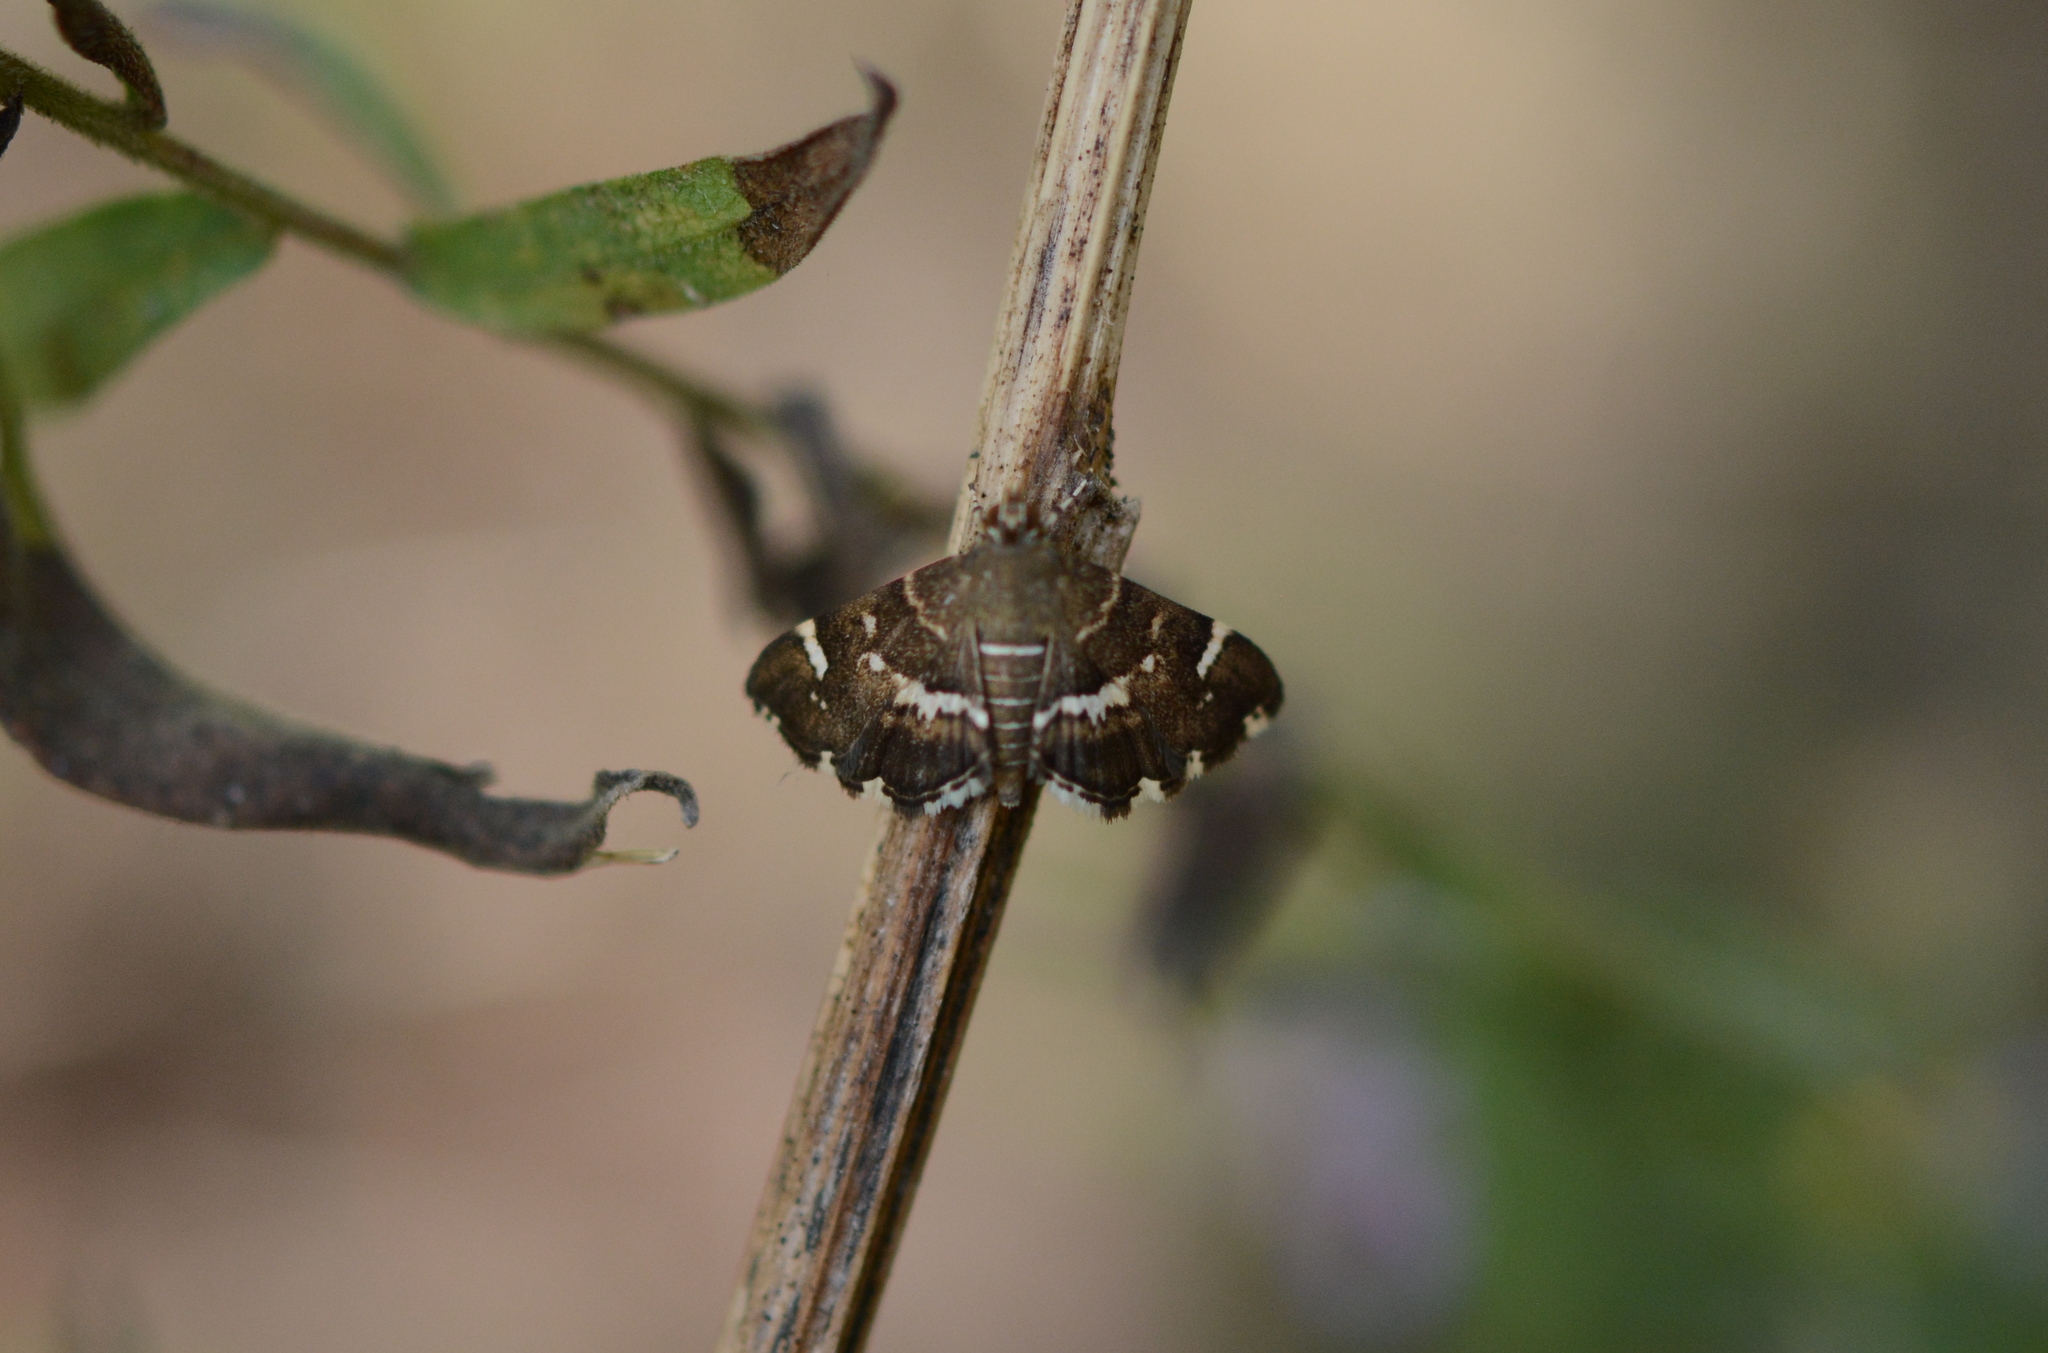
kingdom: Animalia
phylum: Arthropoda
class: Insecta
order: Lepidoptera
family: Crambidae
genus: Hymenia
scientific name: Hymenia perspectalis
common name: Spotted beet webworm
